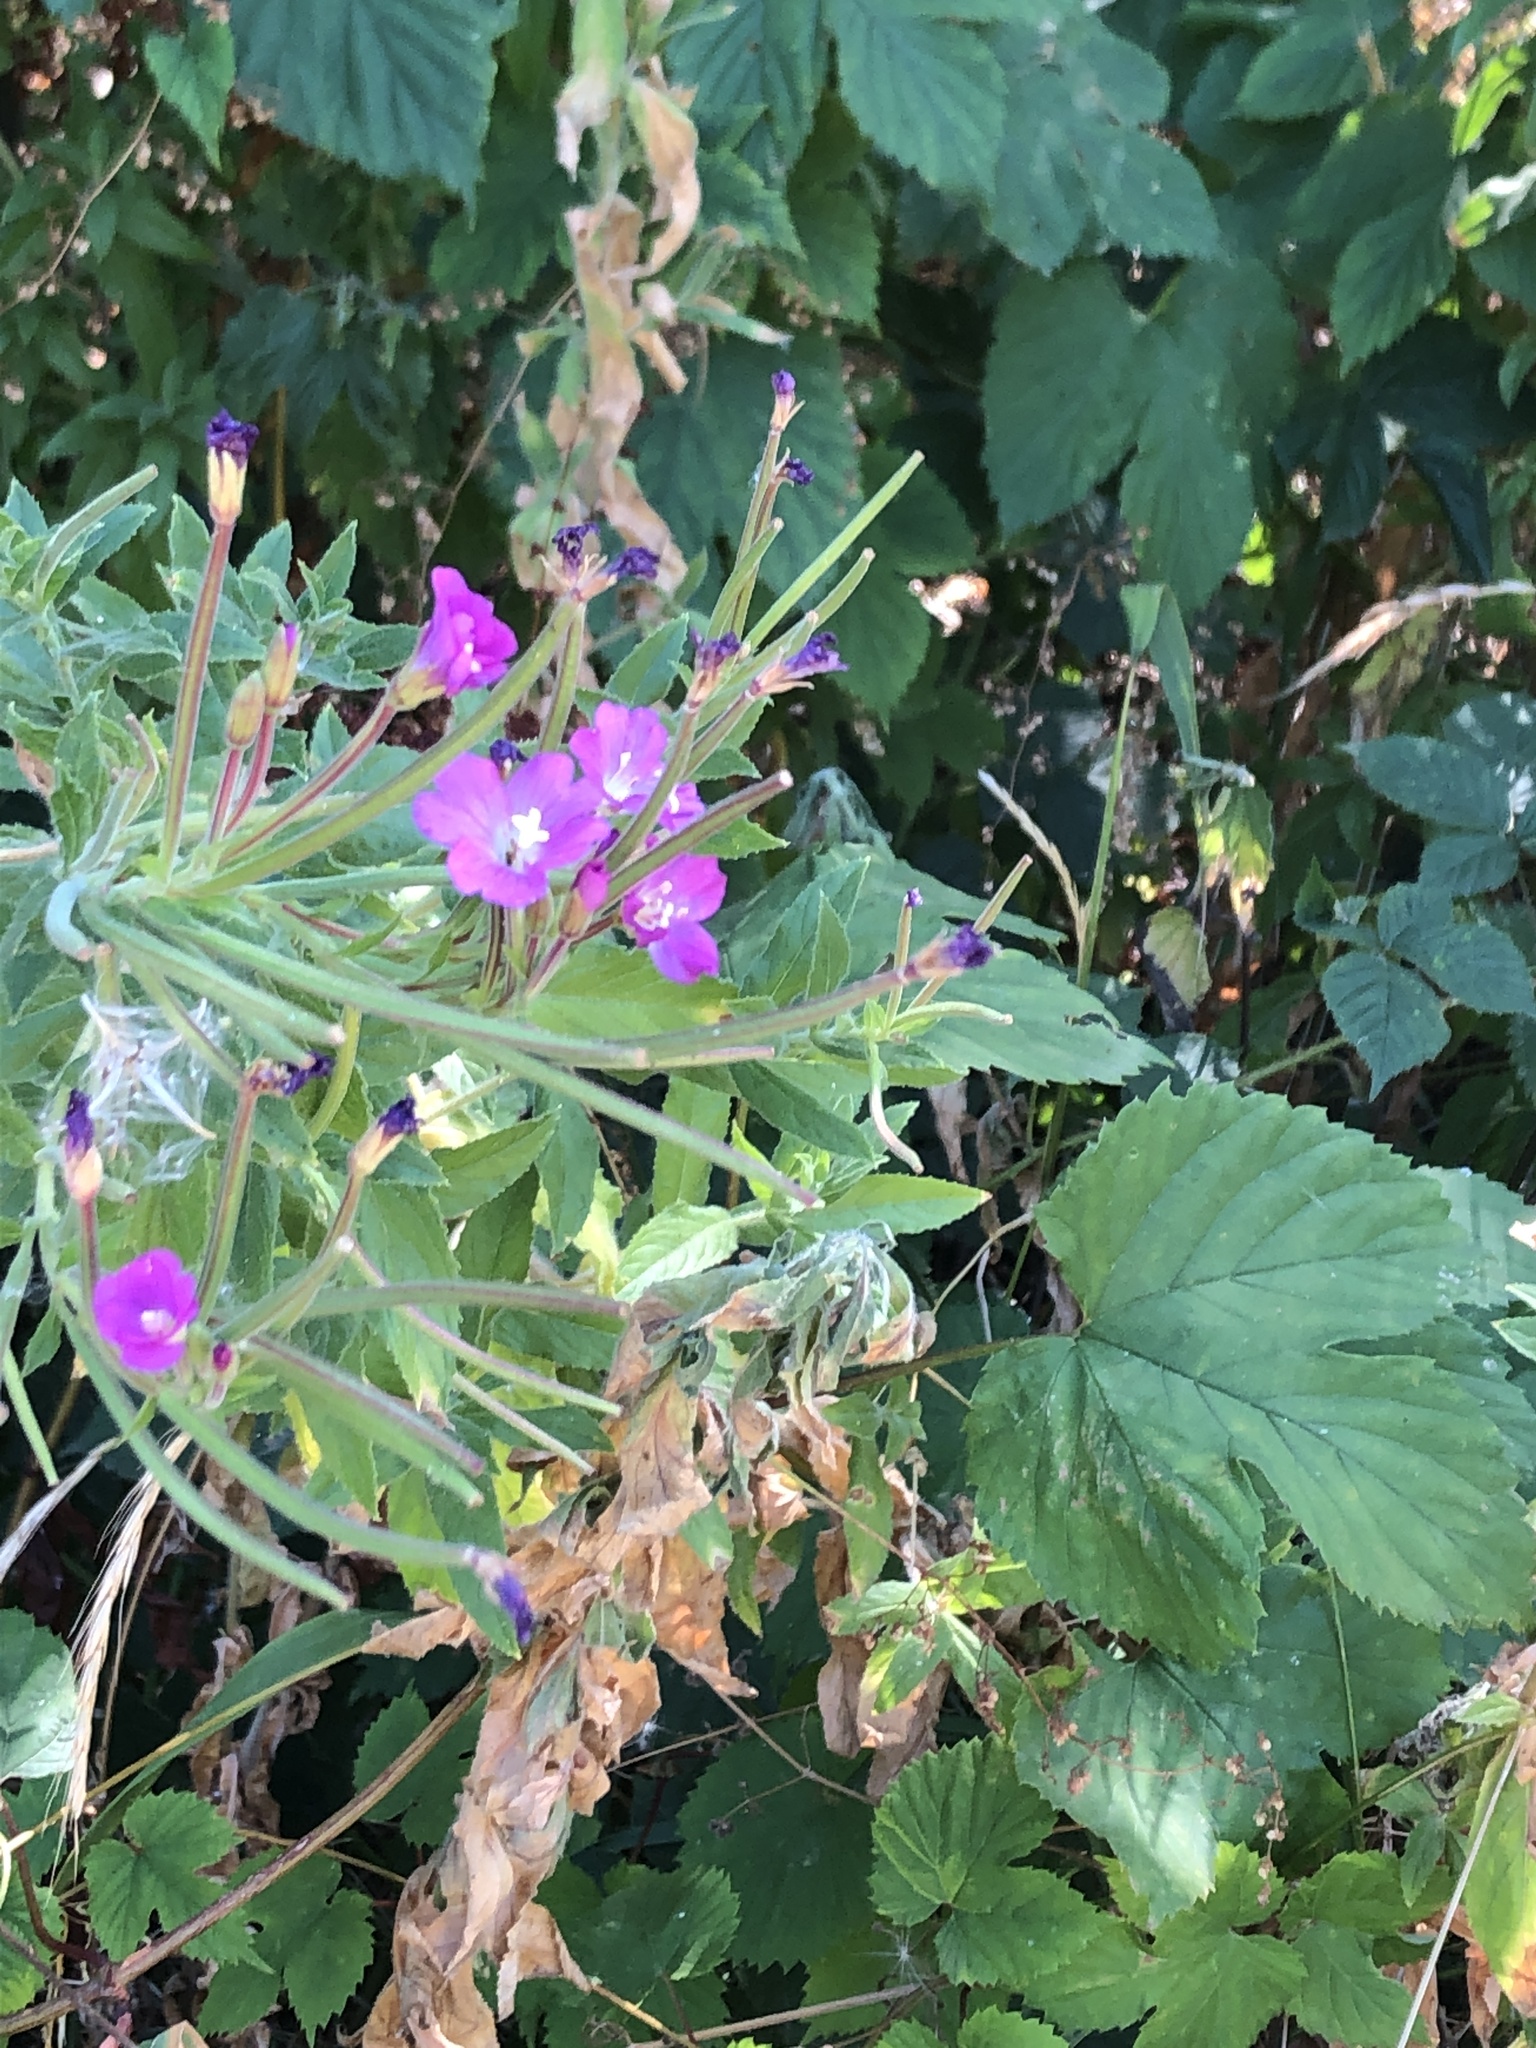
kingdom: Plantae
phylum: Tracheophyta
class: Magnoliopsida
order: Myrtales
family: Onagraceae
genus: Epilobium
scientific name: Epilobium hirsutum
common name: Great willowherb
